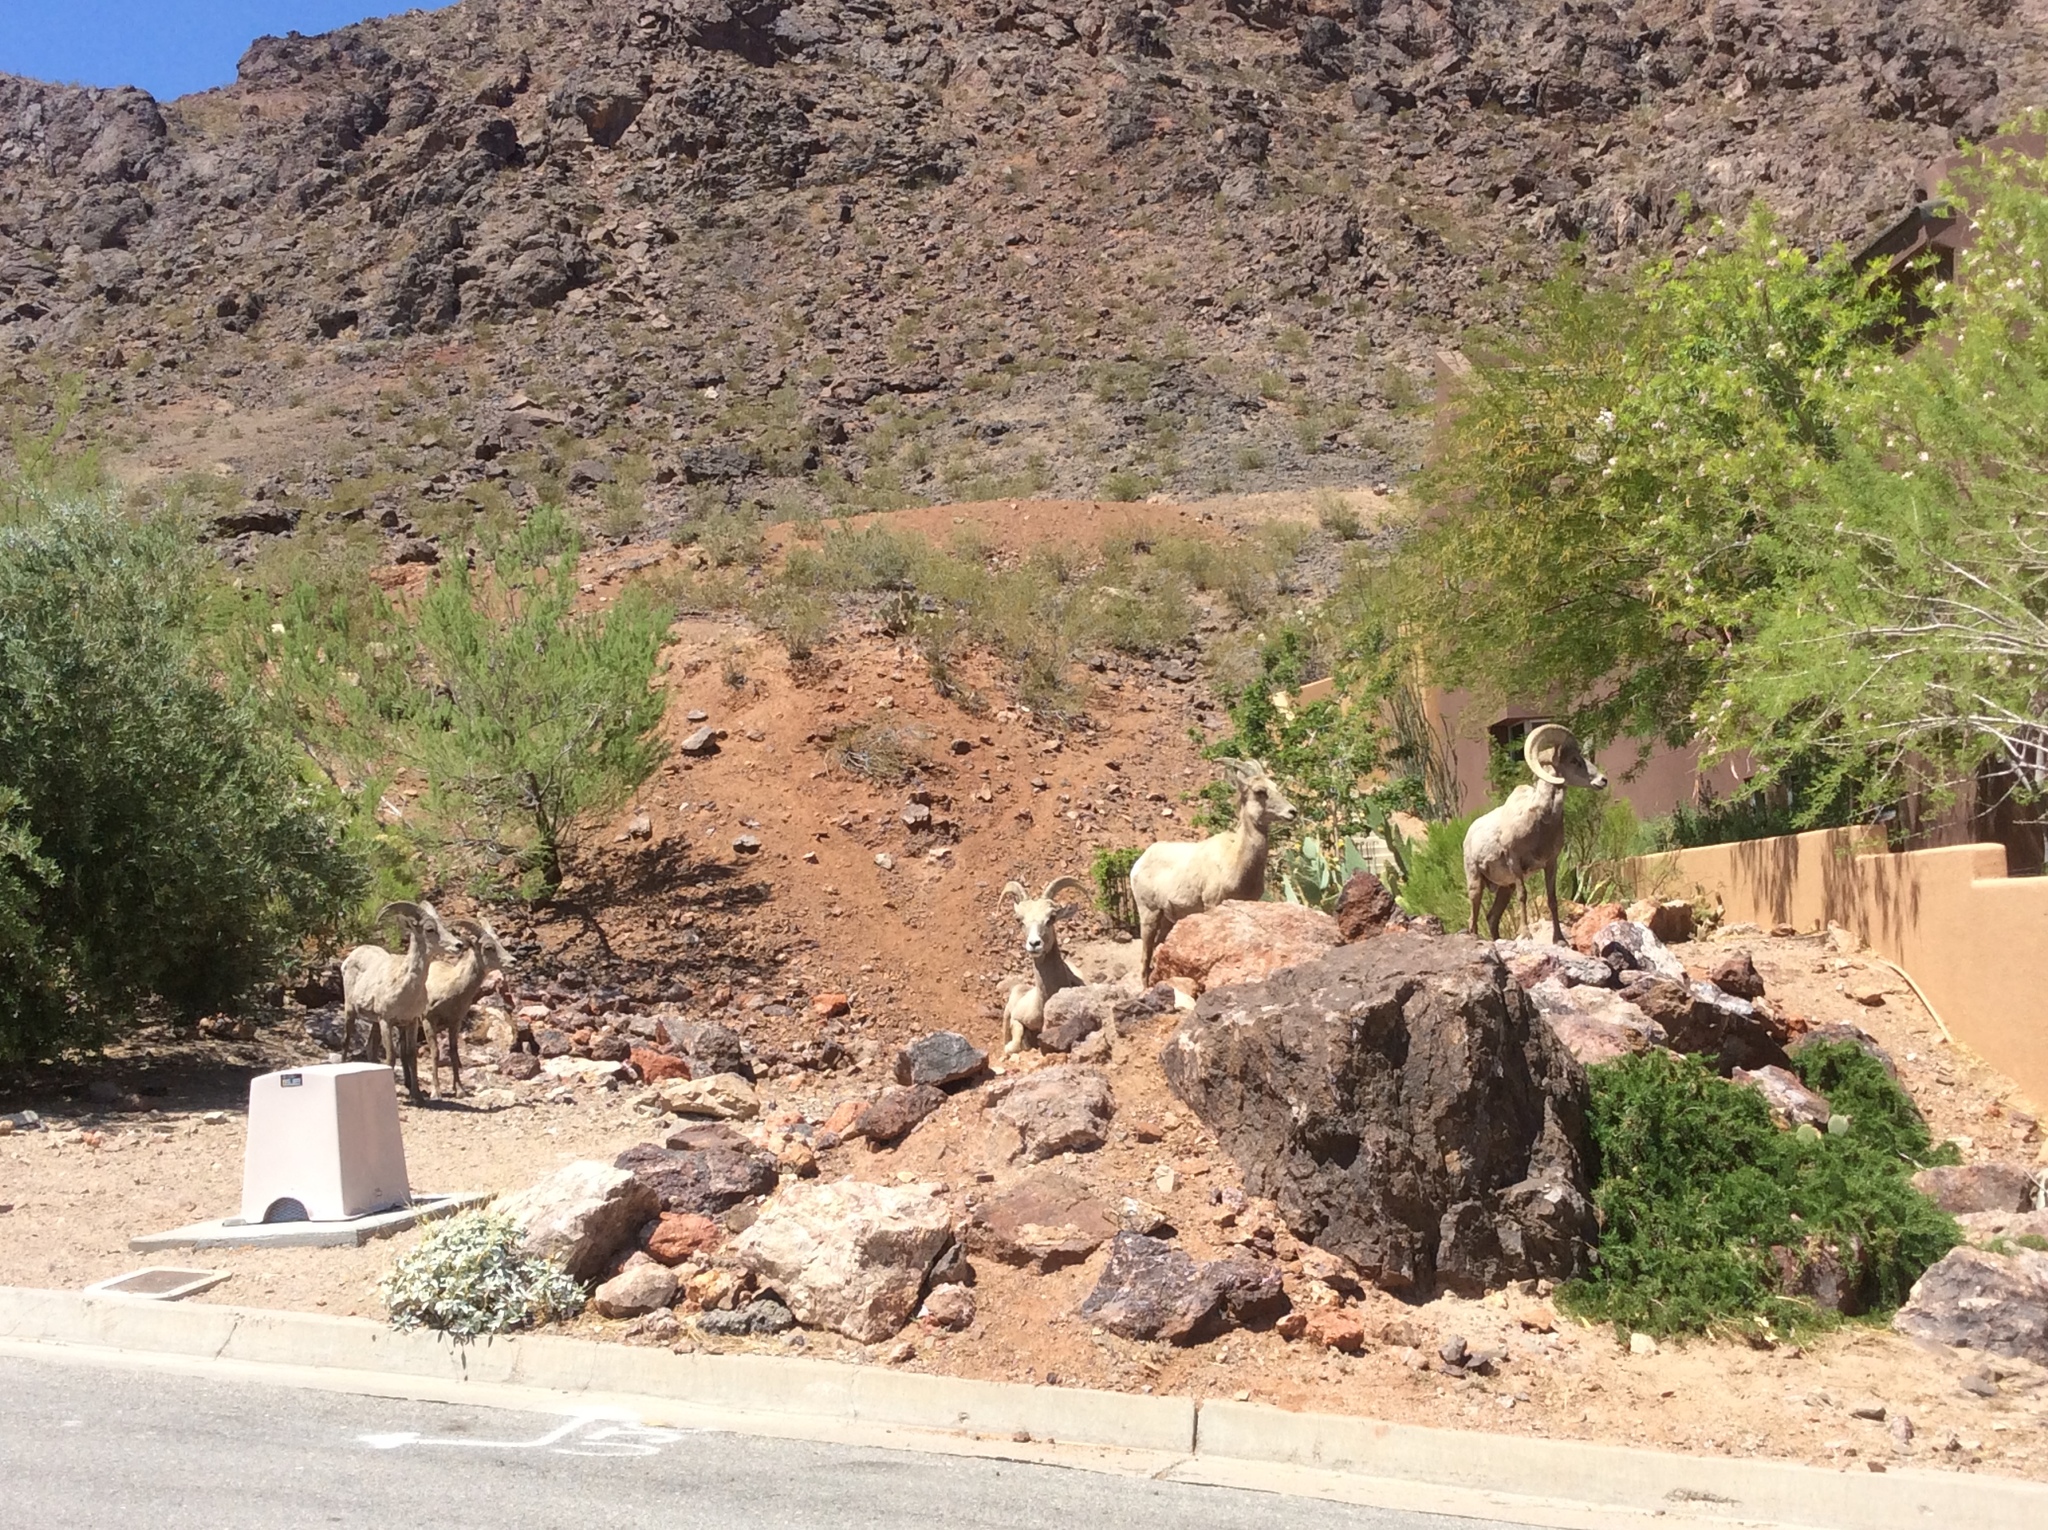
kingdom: Animalia
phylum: Chordata
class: Mammalia
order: Artiodactyla
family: Bovidae
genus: Ovis
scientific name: Ovis canadensis
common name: Bighorn sheep
